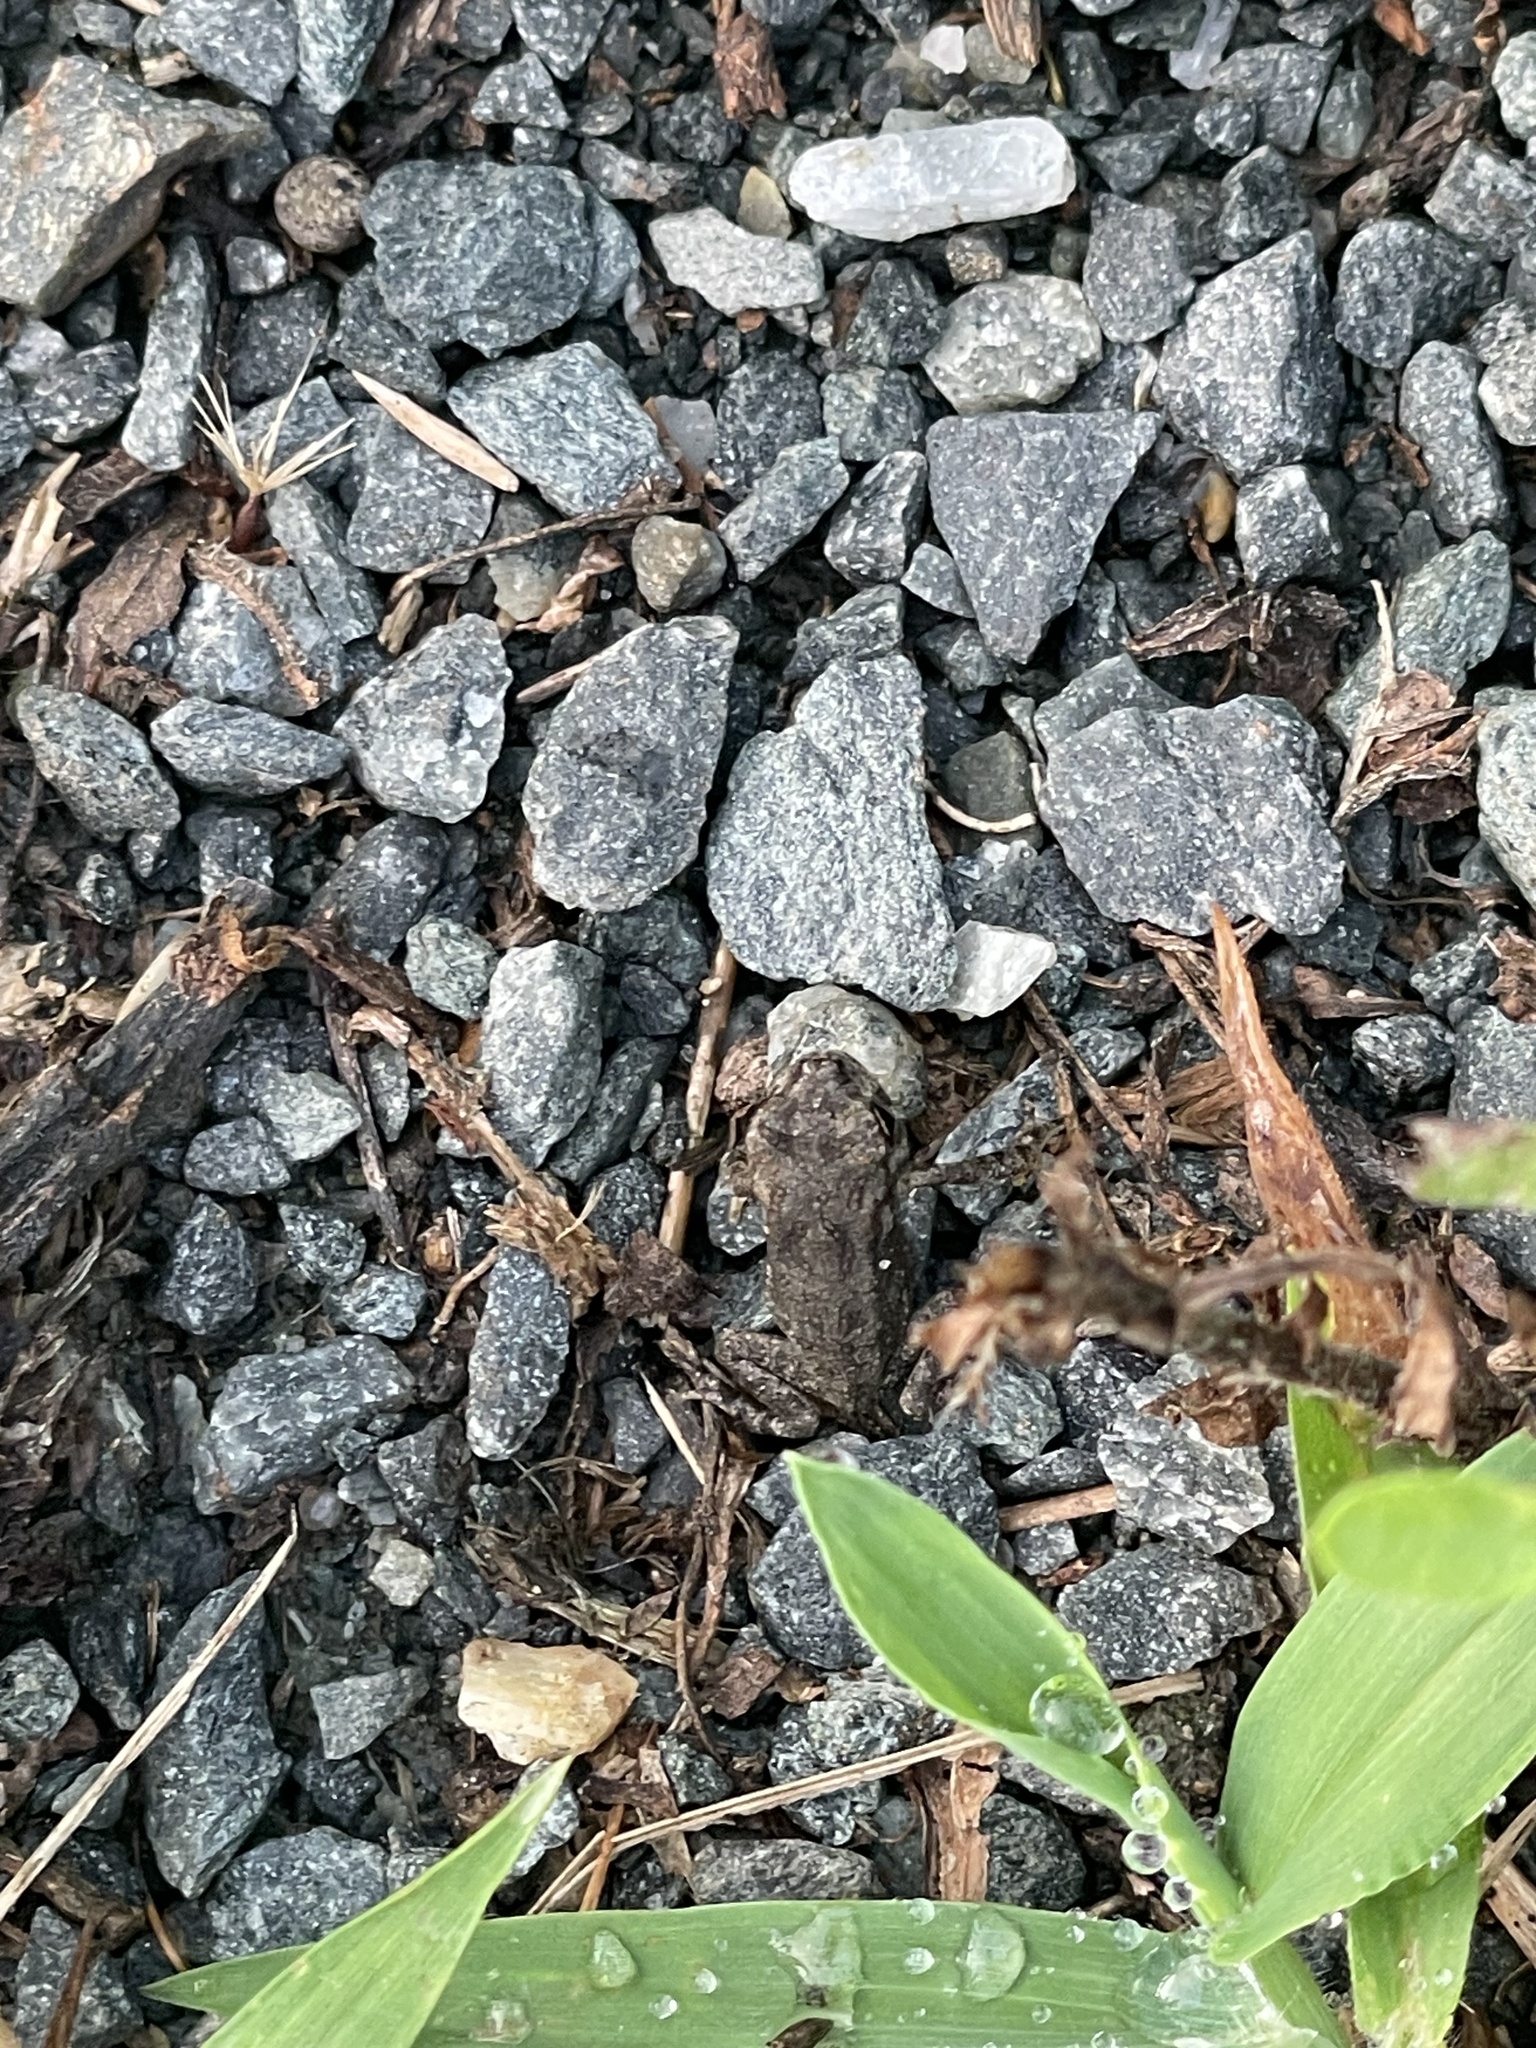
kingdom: Animalia
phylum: Chordata
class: Amphibia
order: Anura
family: Bufonidae
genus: Anaxyrus
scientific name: Anaxyrus fowleri
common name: Fowler's toad
